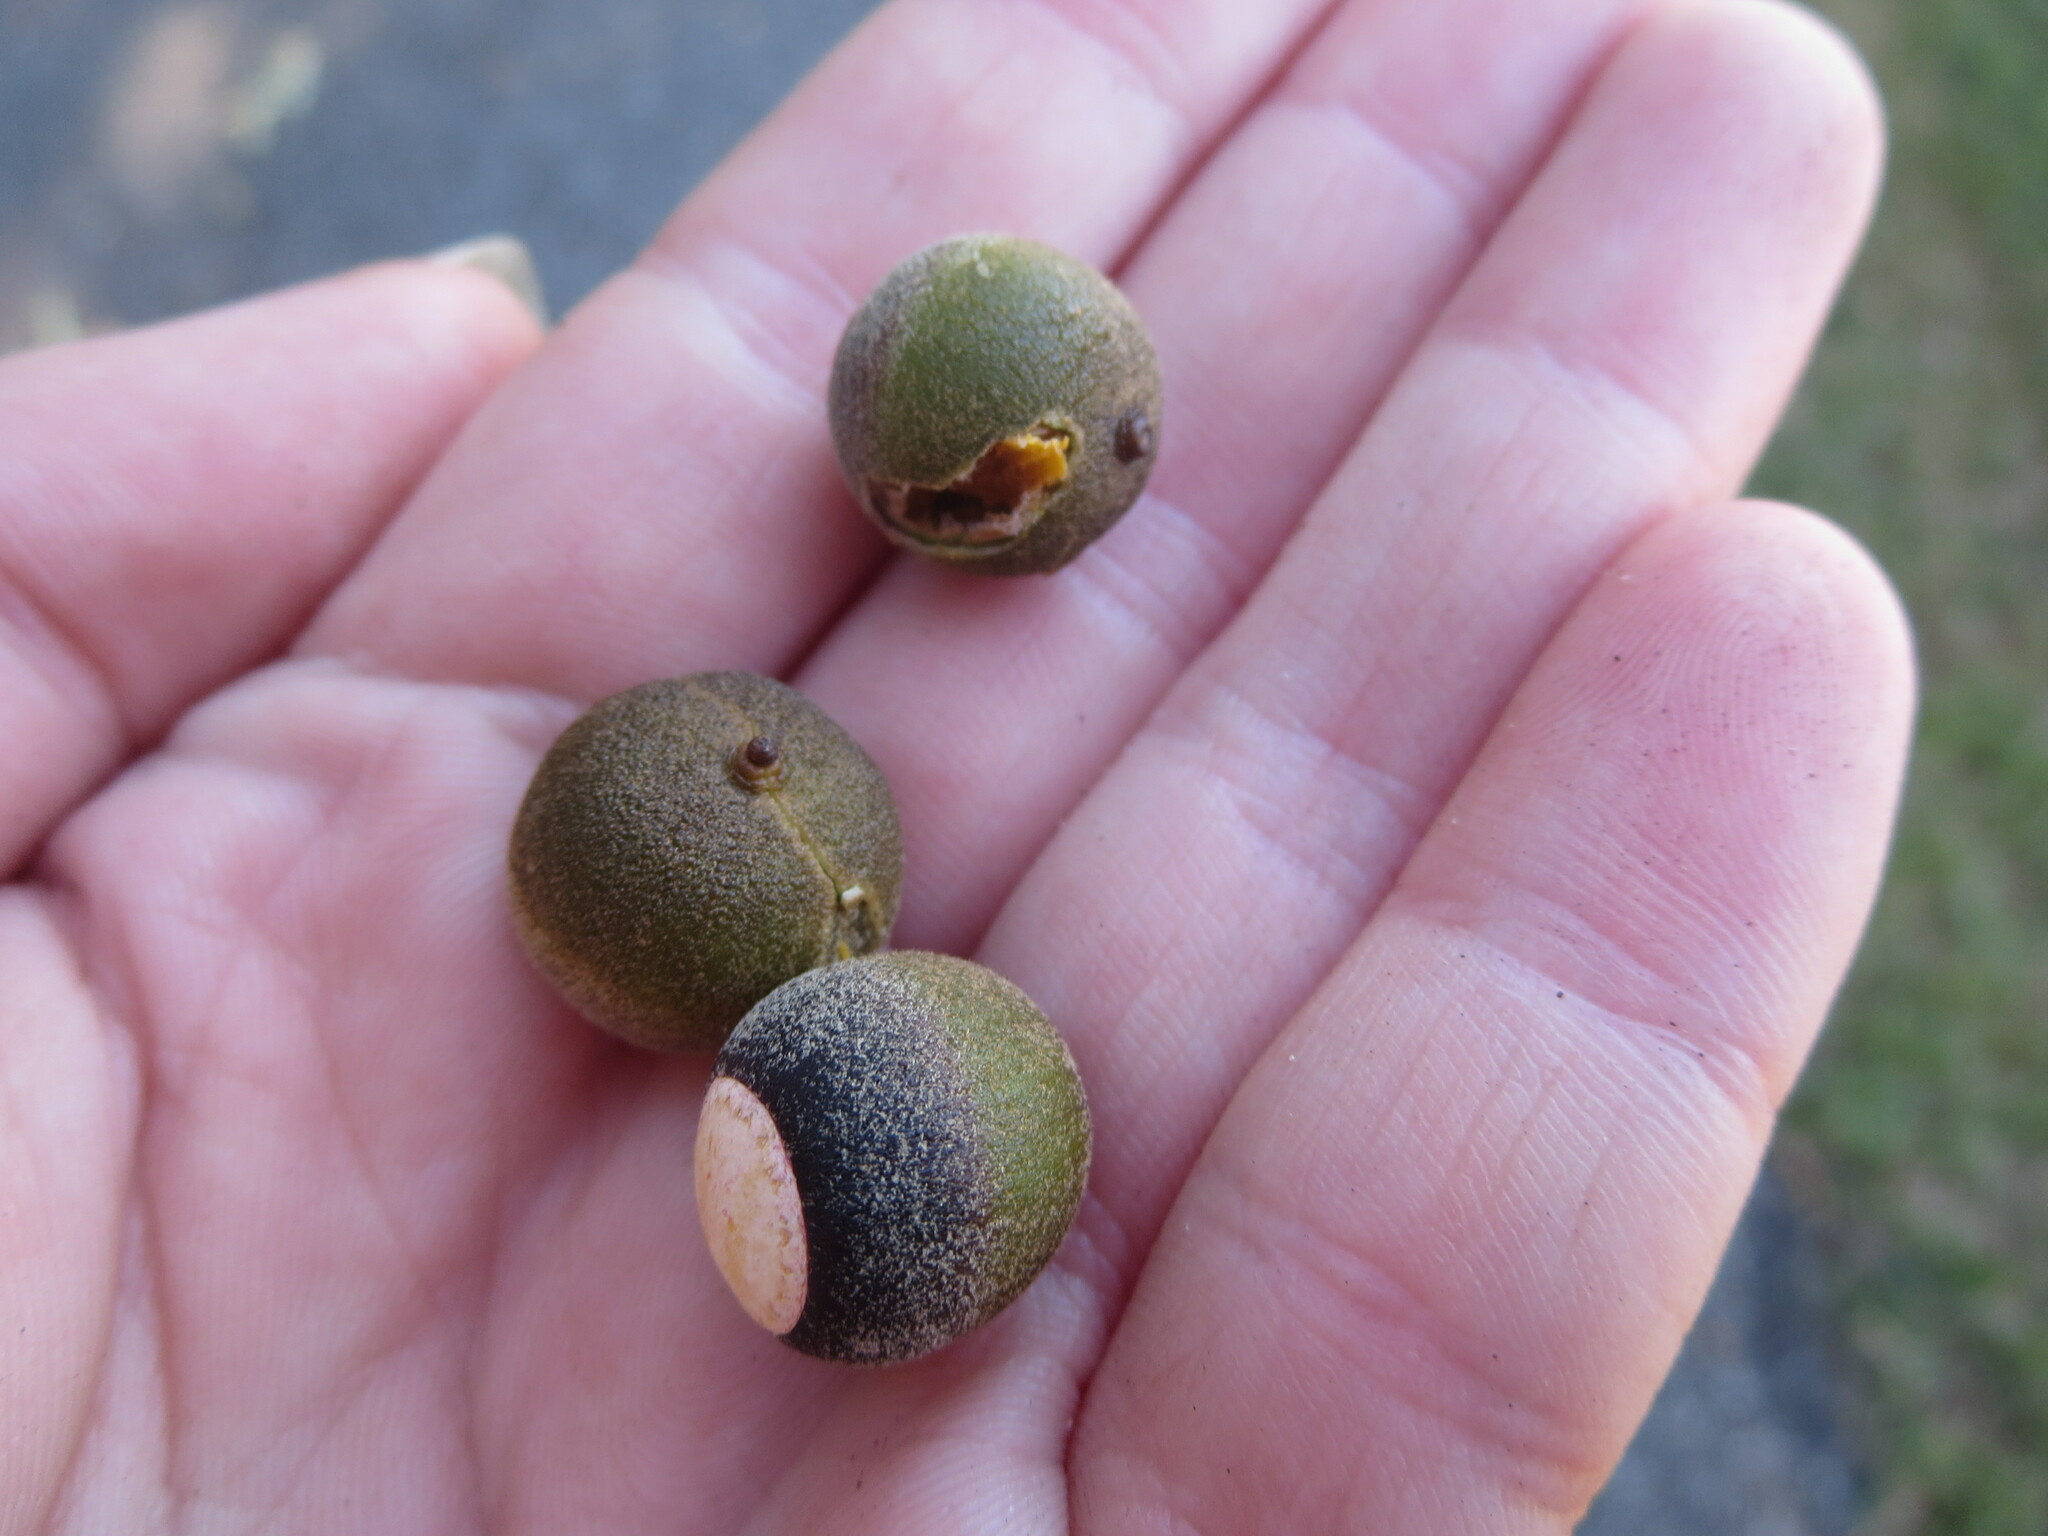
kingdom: Plantae
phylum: Tracheophyta
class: Magnoliopsida
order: Fagales
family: Fagaceae
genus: Quercus
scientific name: Quercus pagoda
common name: Cherrybark oak
